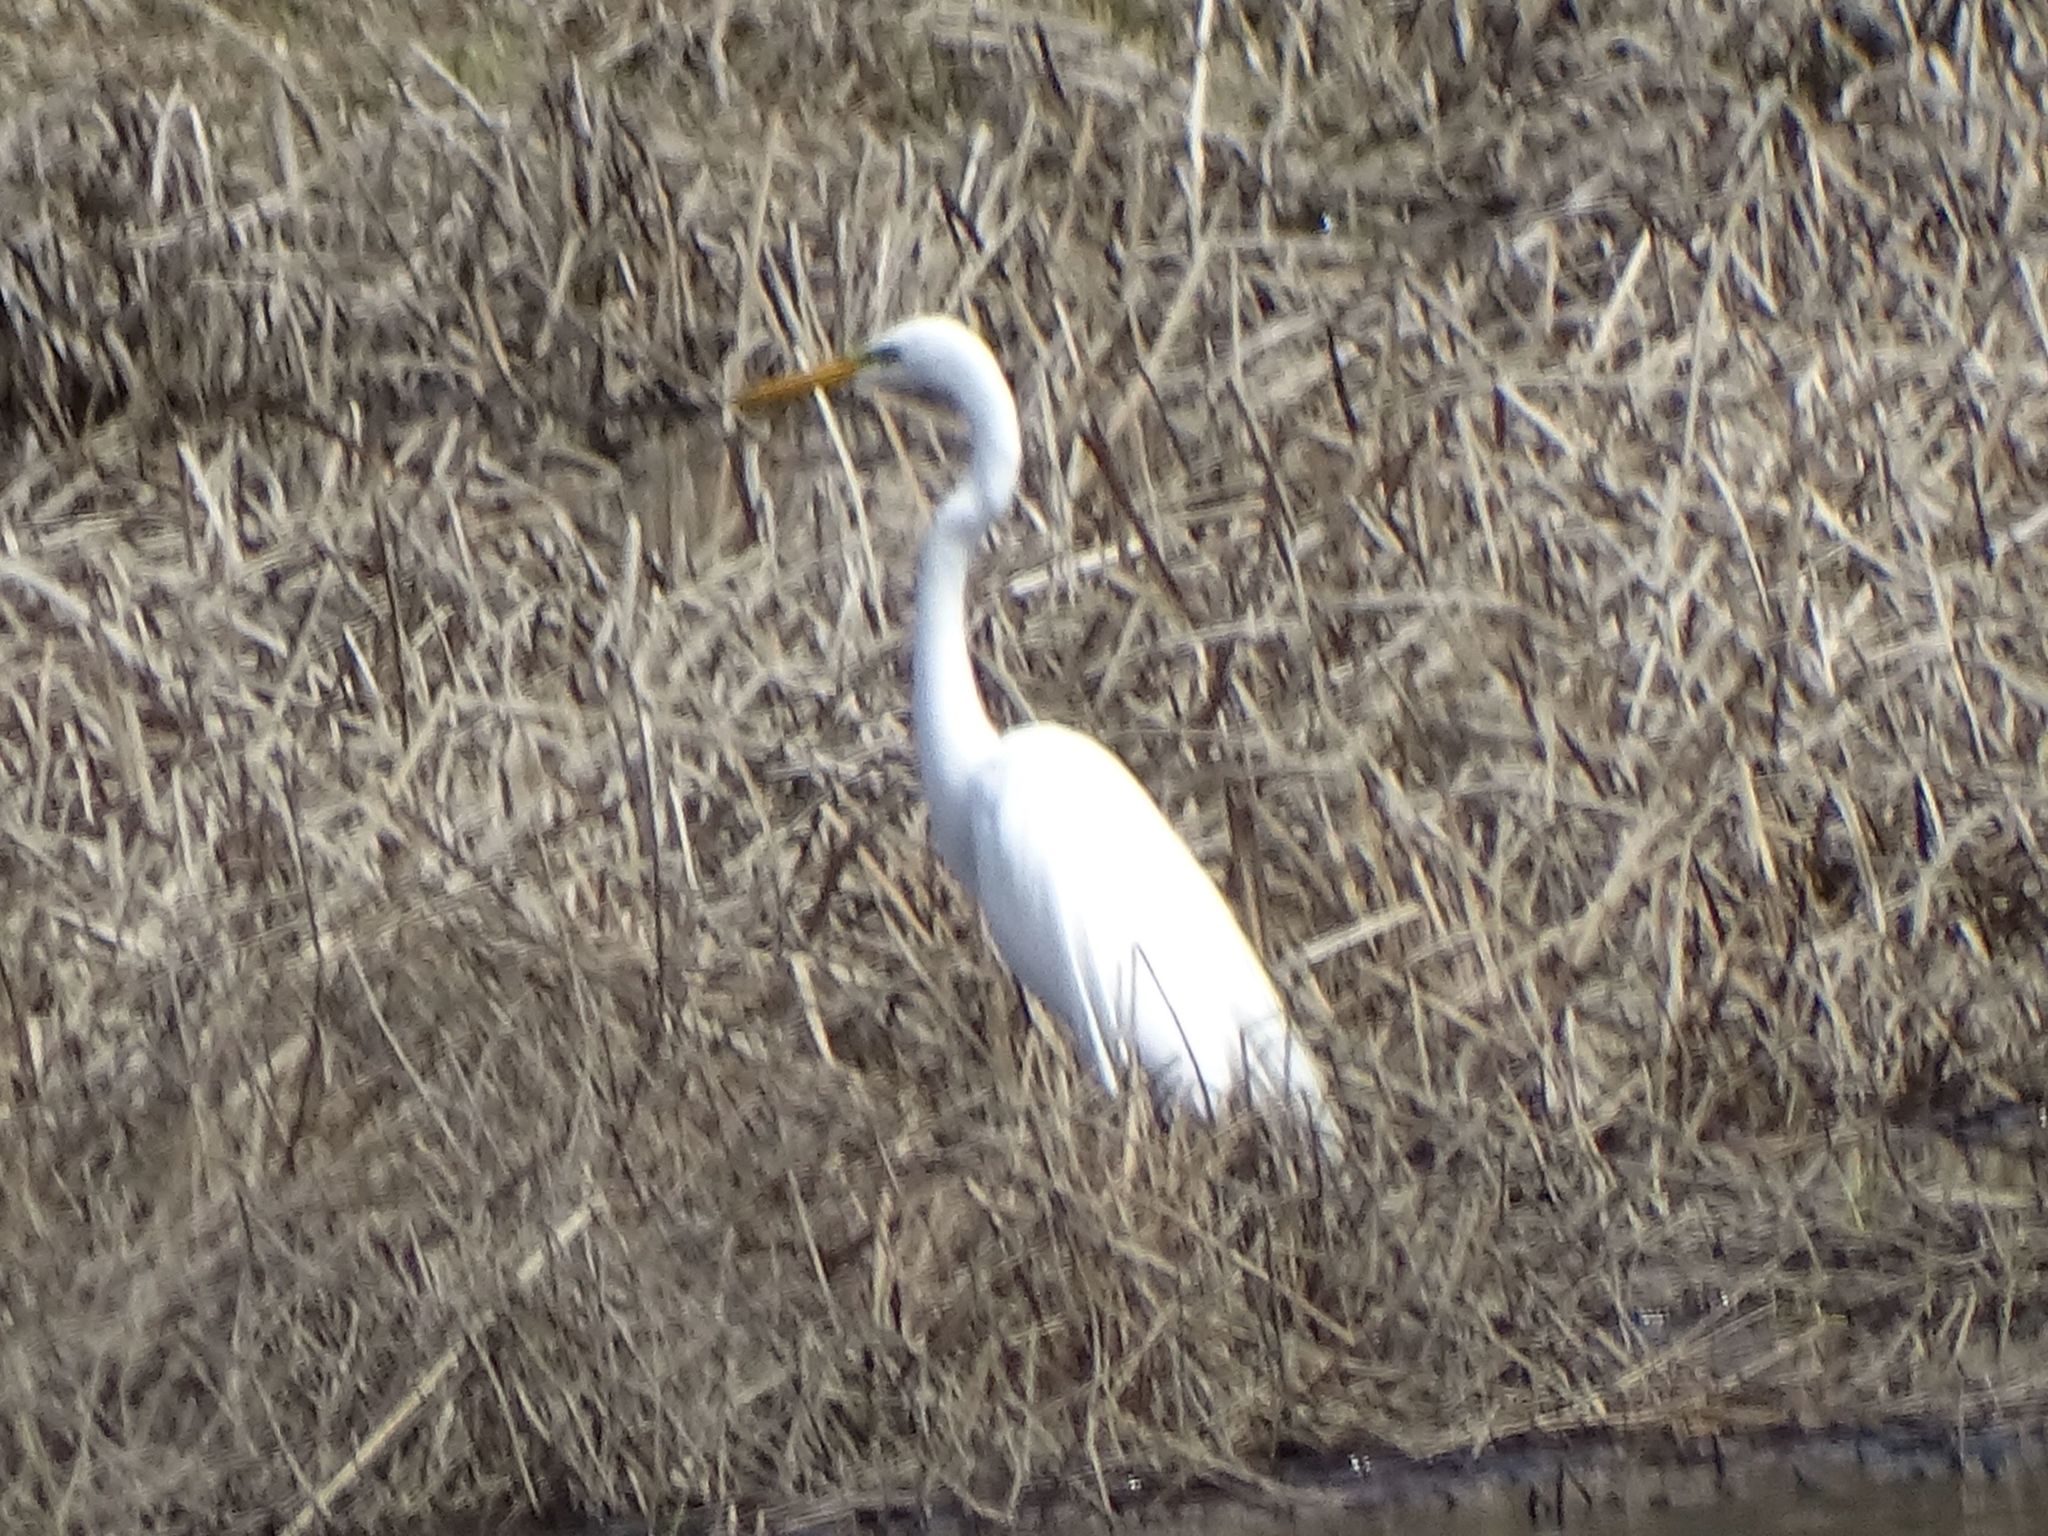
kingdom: Animalia
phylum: Chordata
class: Aves
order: Pelecaniformes
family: Ardeidae
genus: Ardea
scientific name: Ardea alba
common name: Great egret
